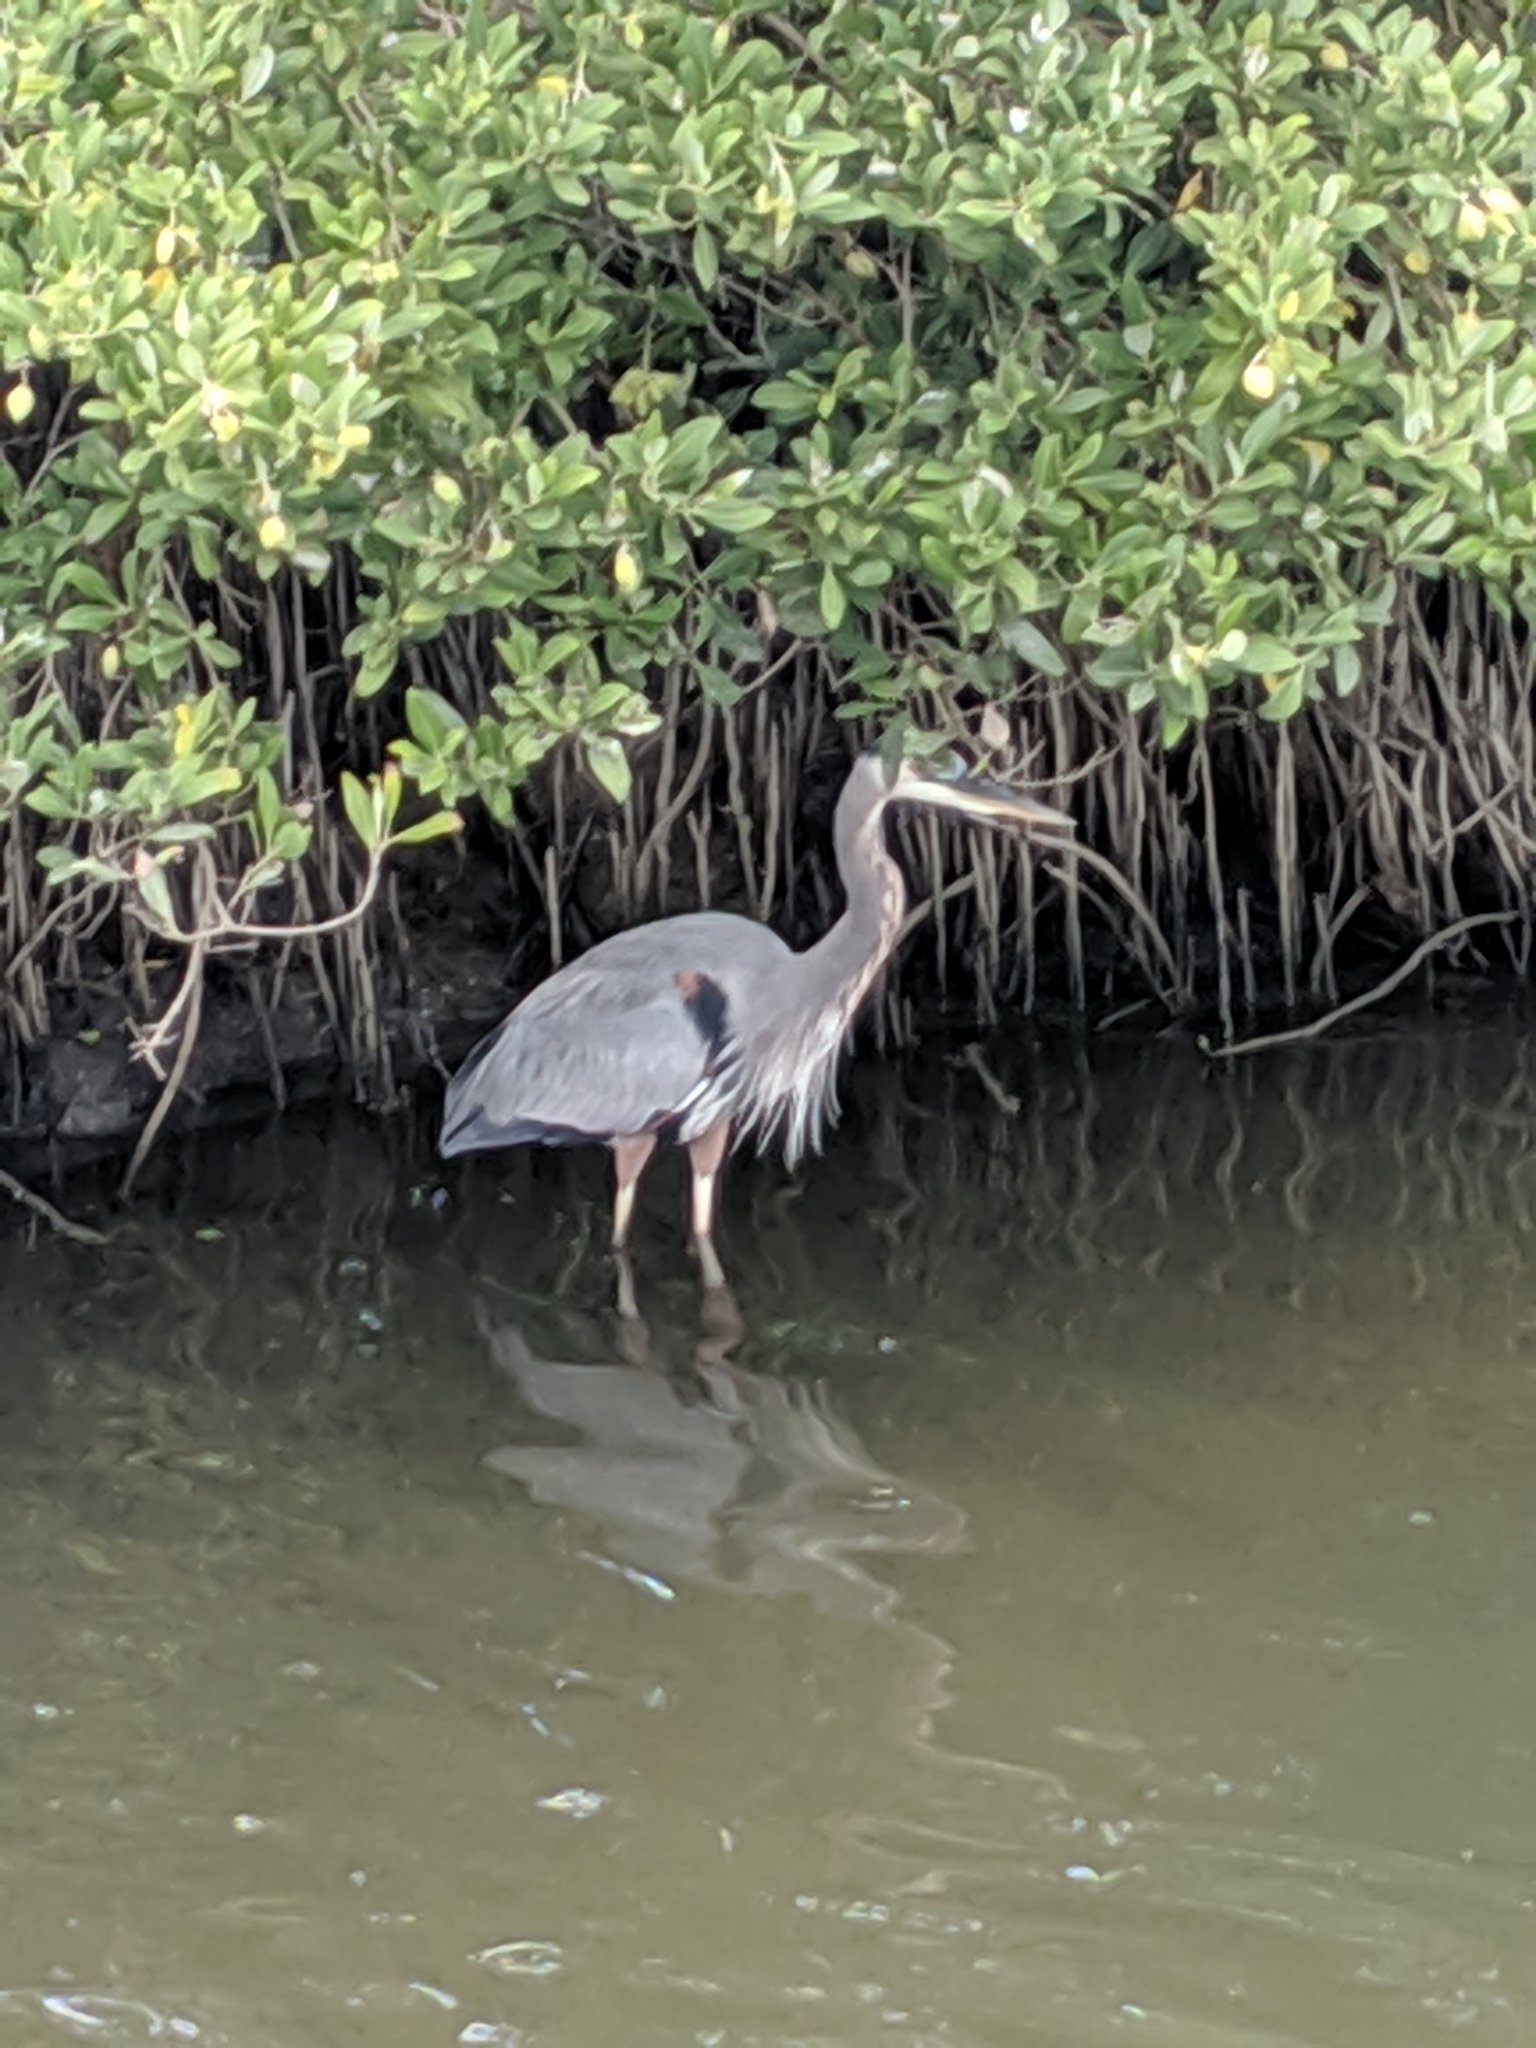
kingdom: Animalia
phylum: Chordata
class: Aves
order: Pelecaniformes
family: Ardeidae
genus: Ardea
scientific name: Ardea herodias
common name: Great blue heron
